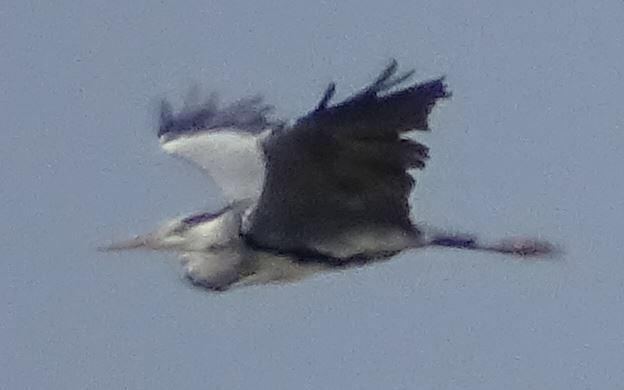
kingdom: Animalia
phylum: Chordata
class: Aves
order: Pelecaniformes
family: Ardeidae
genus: Ardea
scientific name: Ardea cinerea
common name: Grey heron
